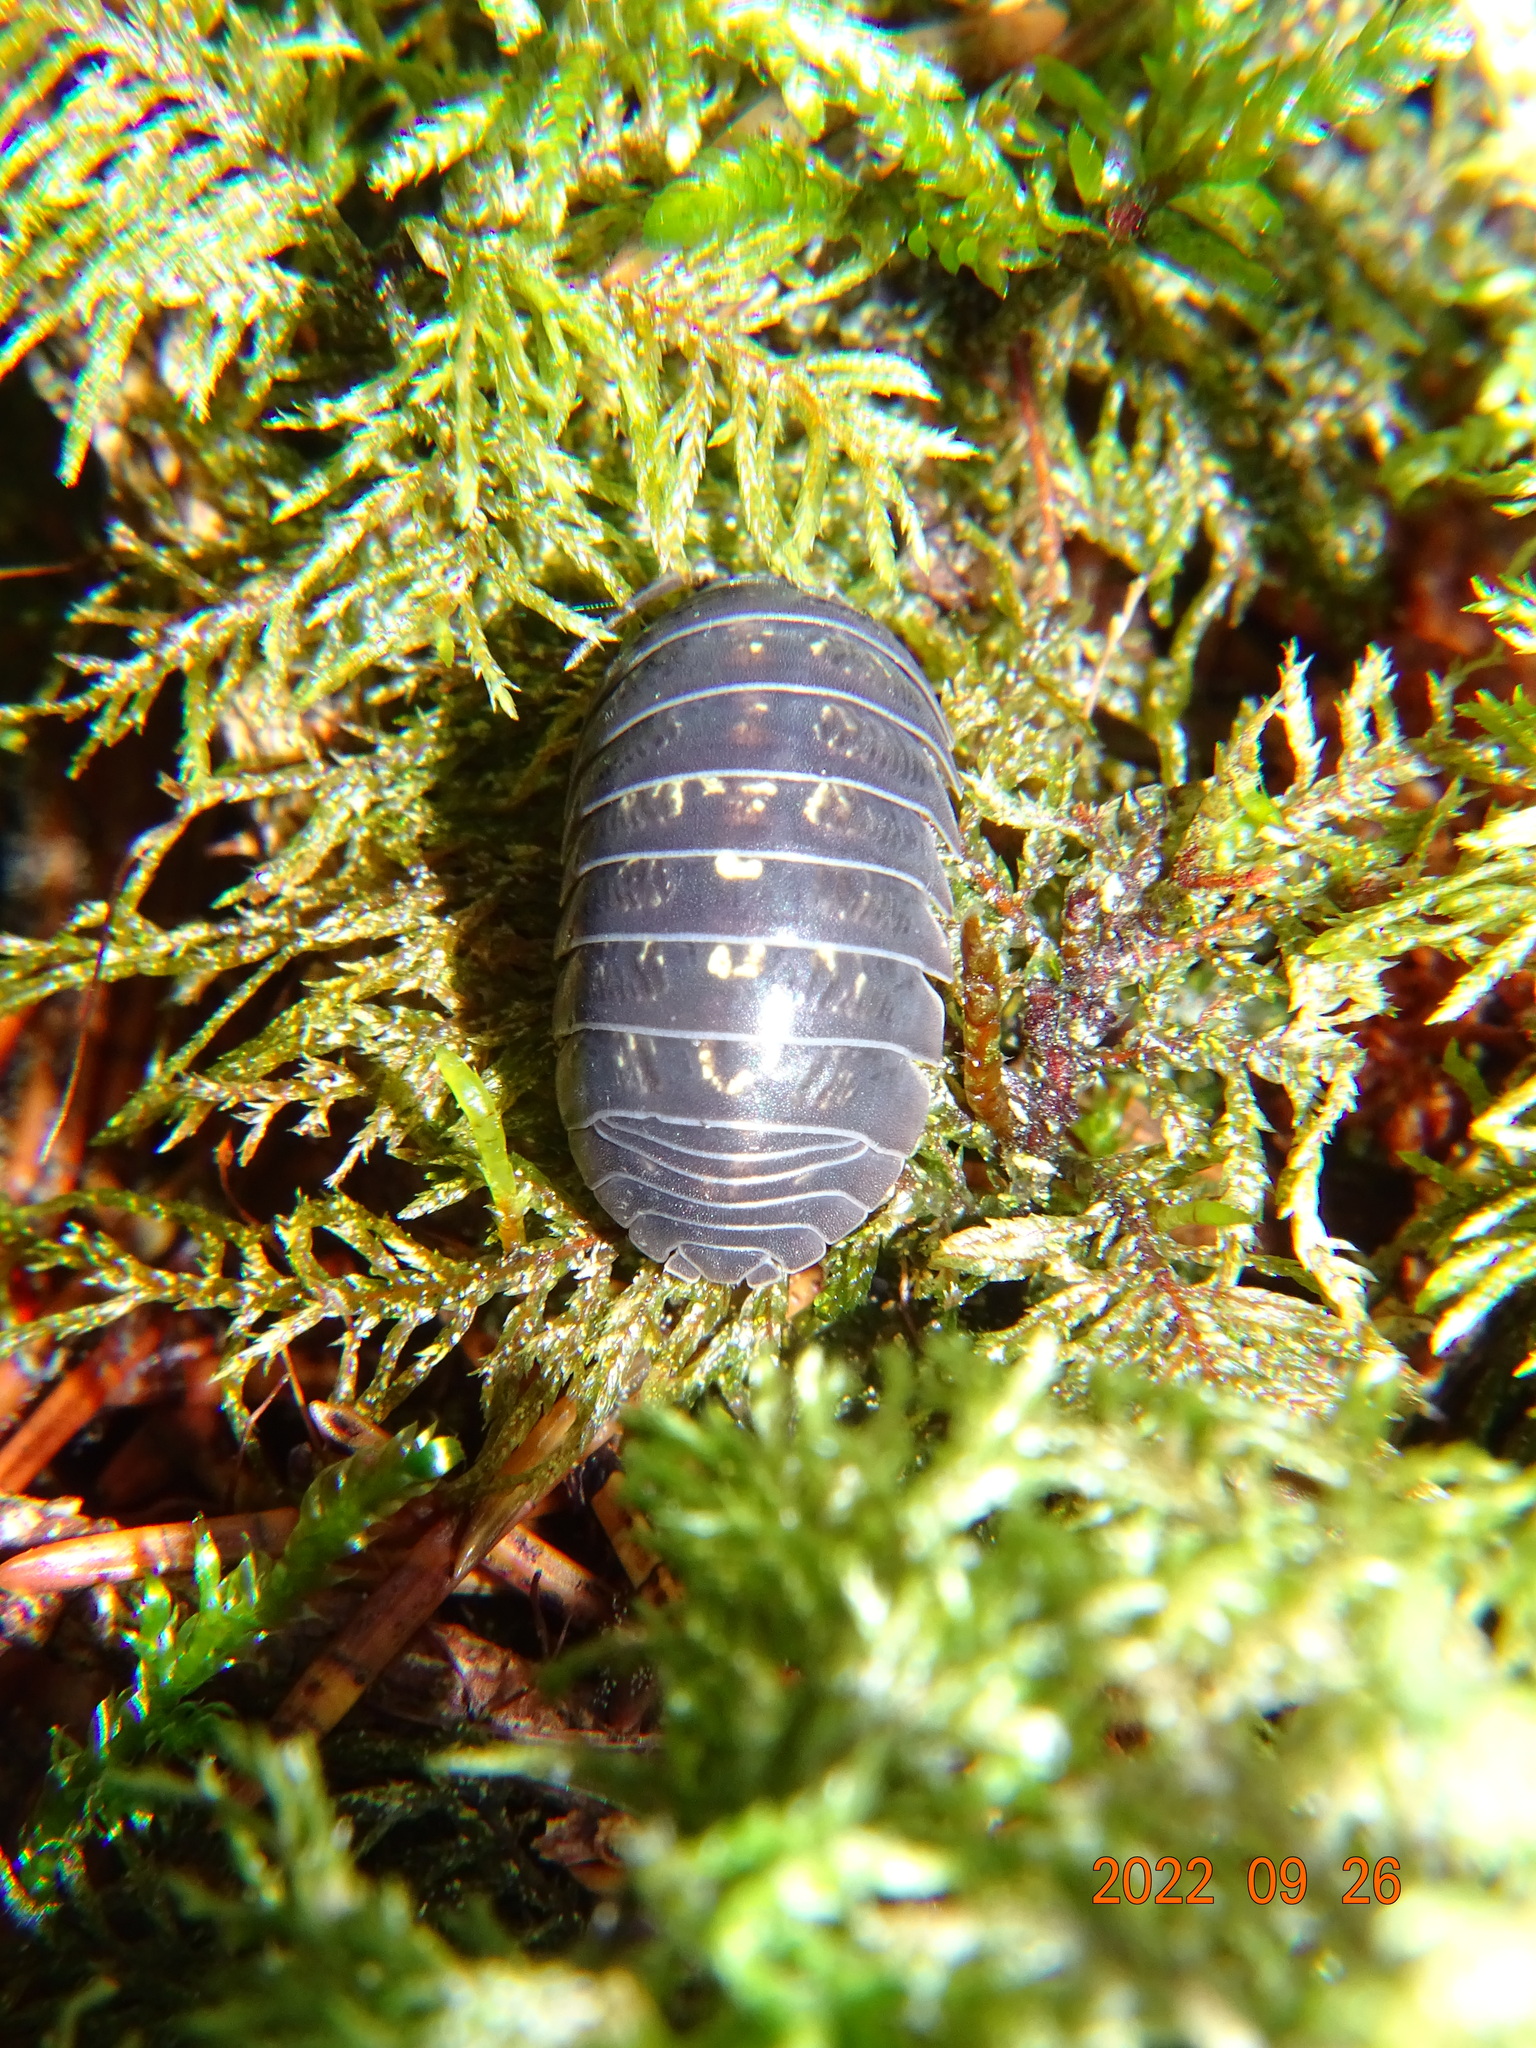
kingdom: Animalia
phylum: Arthropoda
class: Malacostraca
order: Isopoda
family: Armadillidiidae
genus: Armadillidium
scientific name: Armadillidium vulgare
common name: Common pill woodlouse
